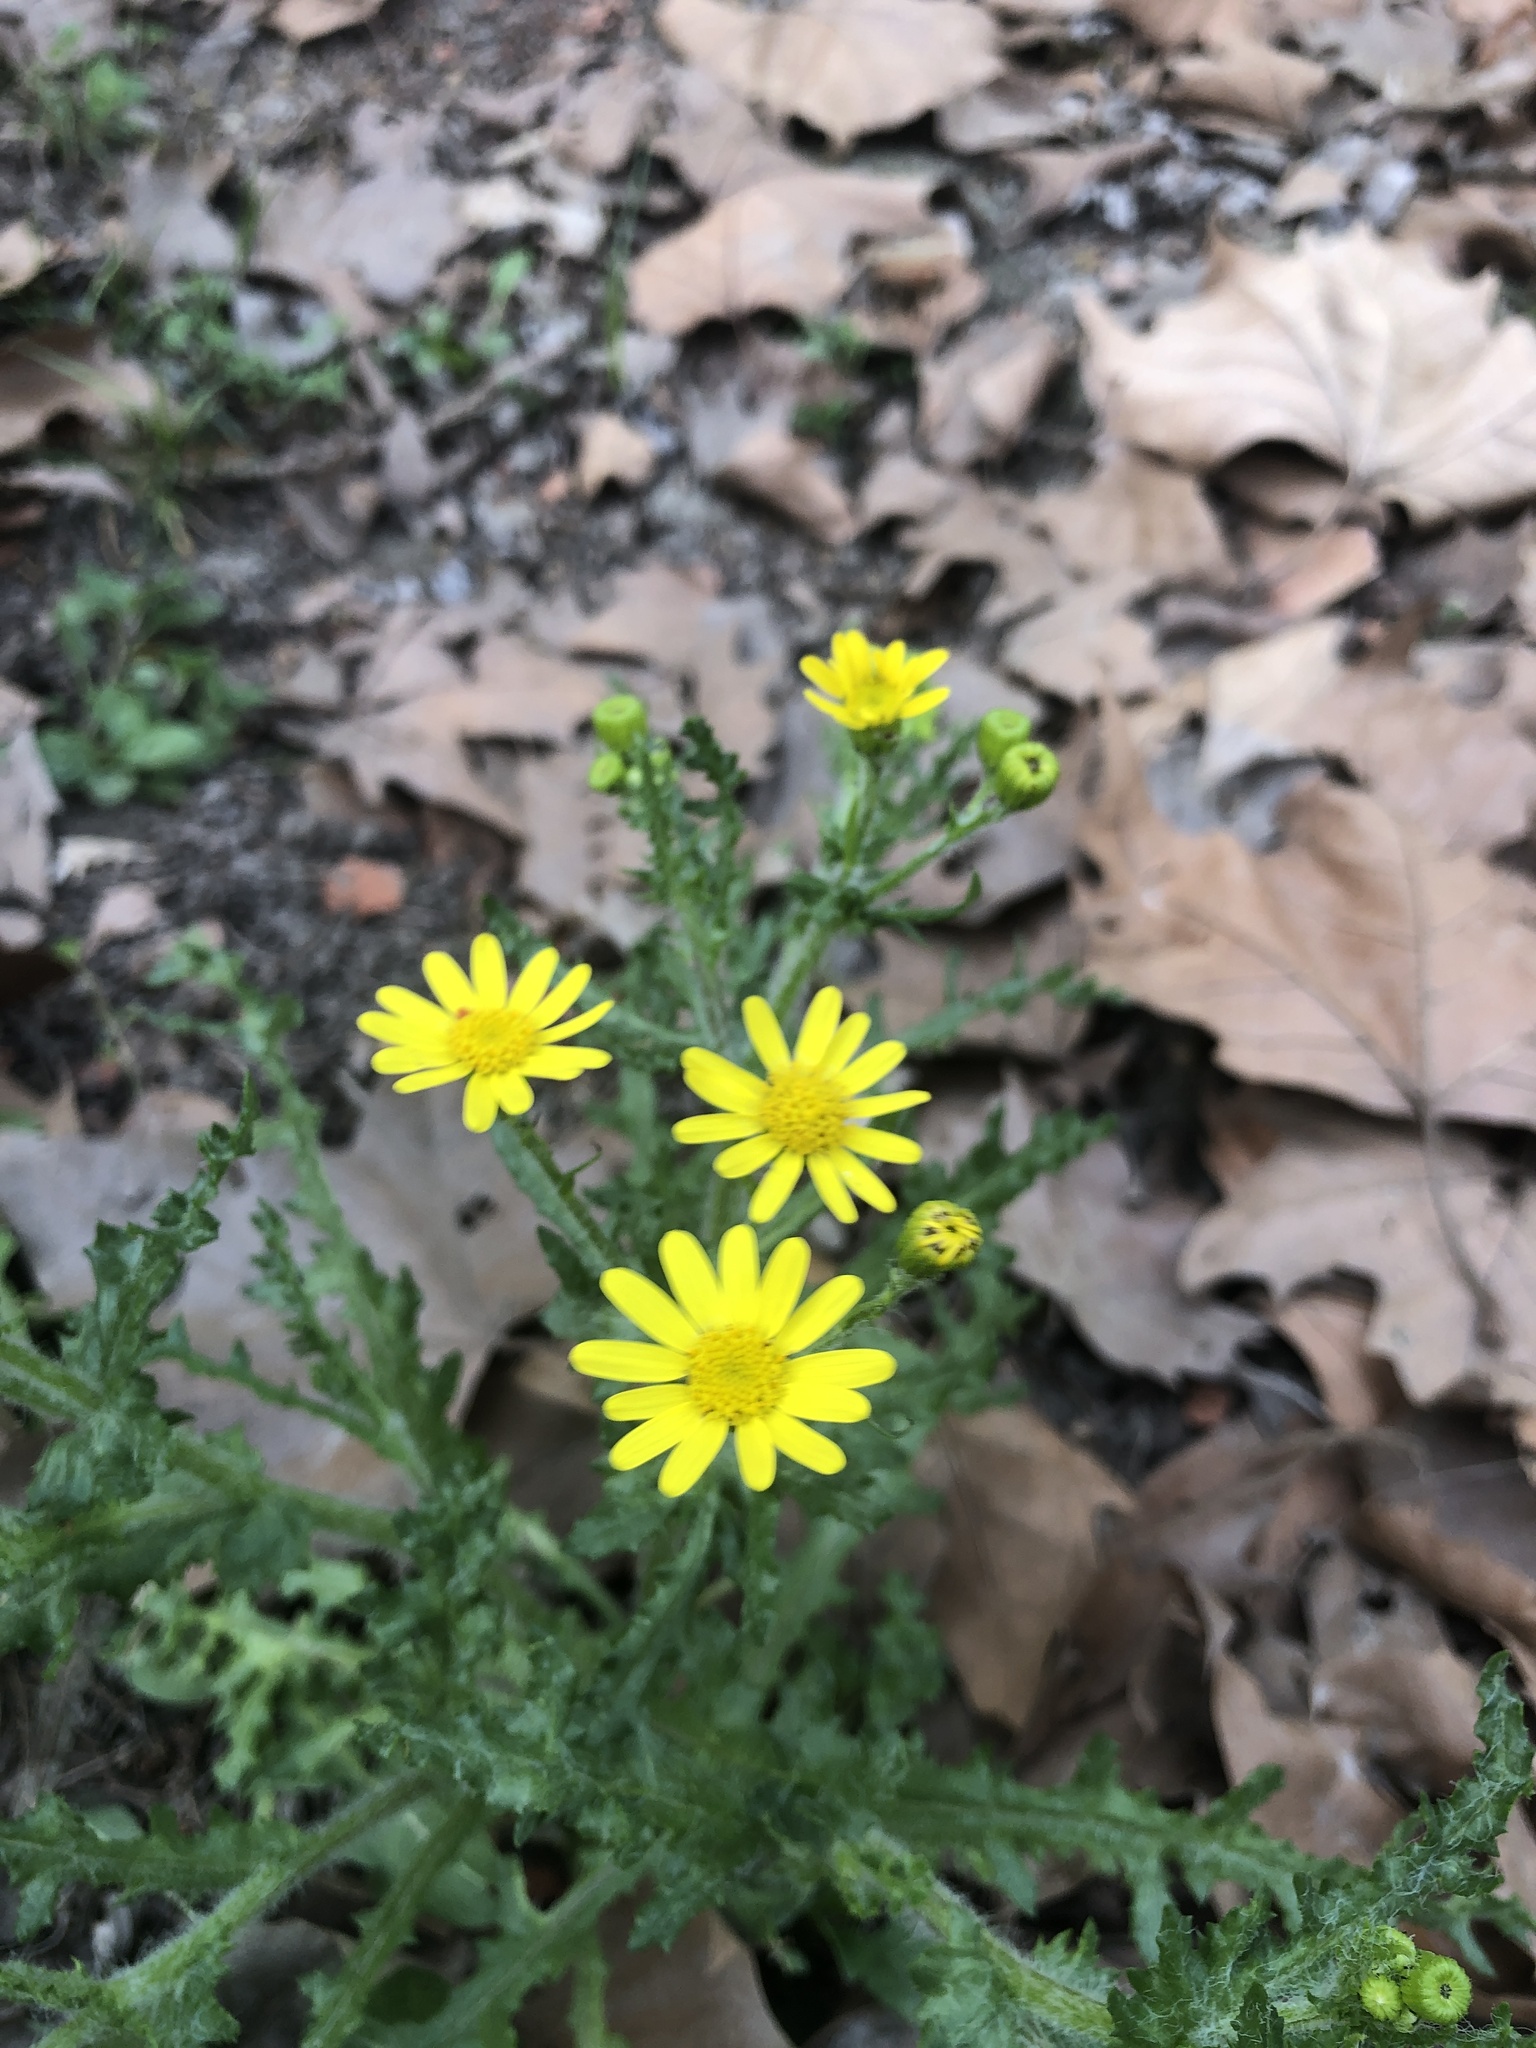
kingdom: Plantae
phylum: Tracheophyta
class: Magnoliopsida
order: Asterales
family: Asteraceae
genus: Senecio
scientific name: Senecio vernalis
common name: Eastern groundsel
